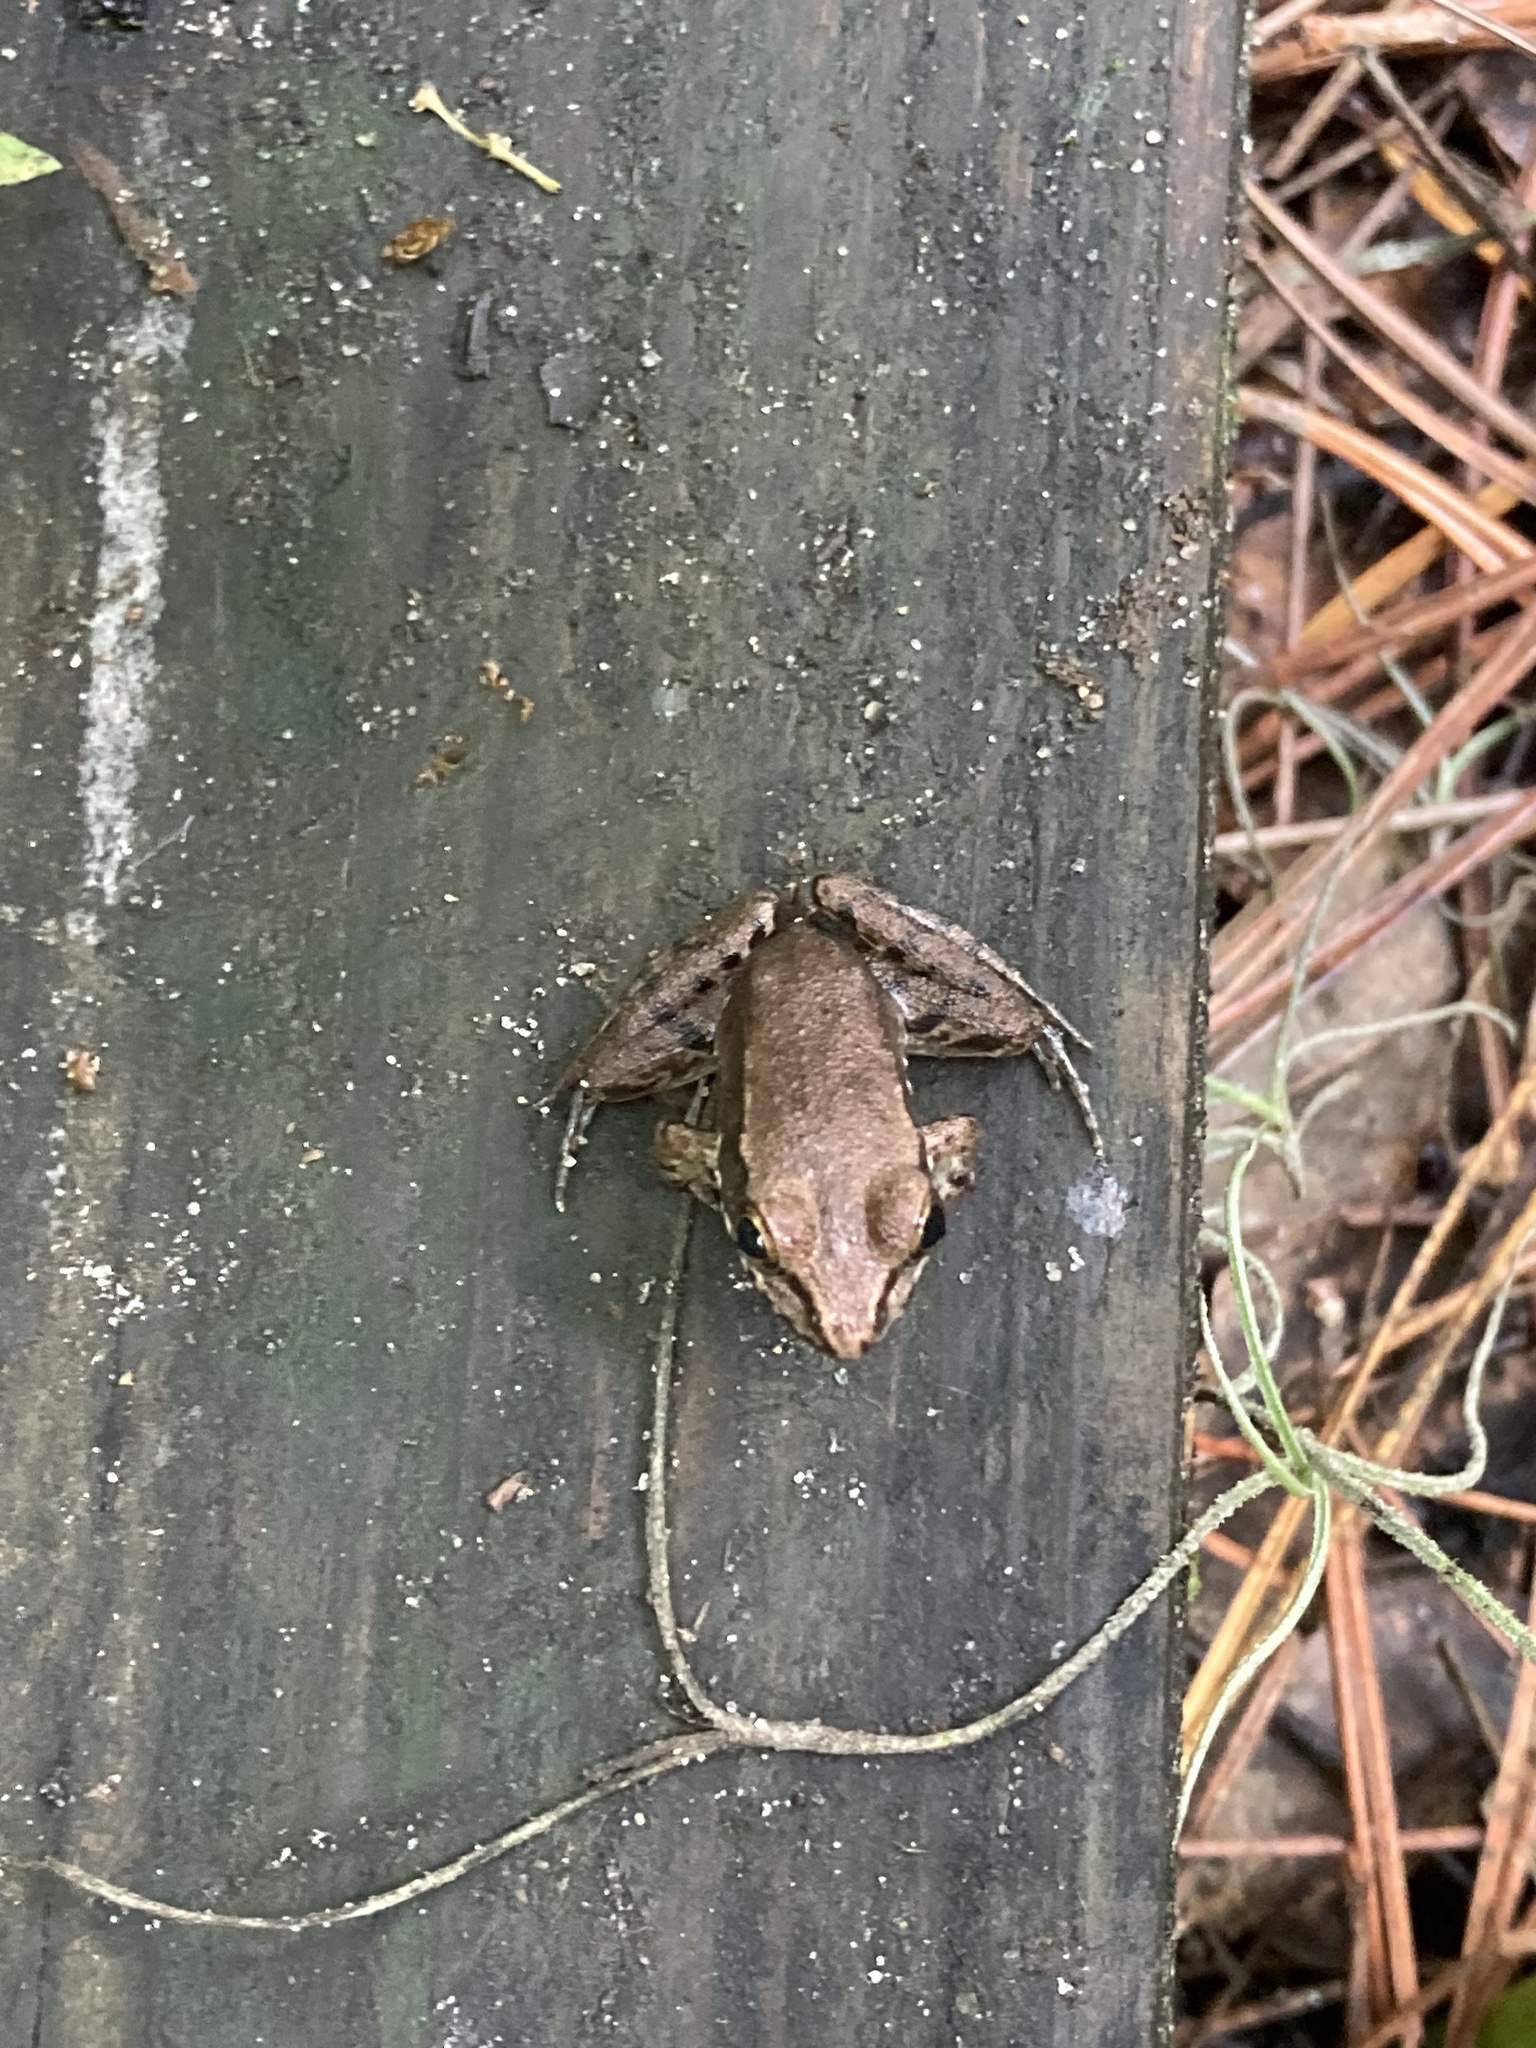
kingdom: Animalia
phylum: Chordata
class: Amphibia
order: Anura
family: Ranidae
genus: Lithobates
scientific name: Lithobates clamitans
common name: Green frog
